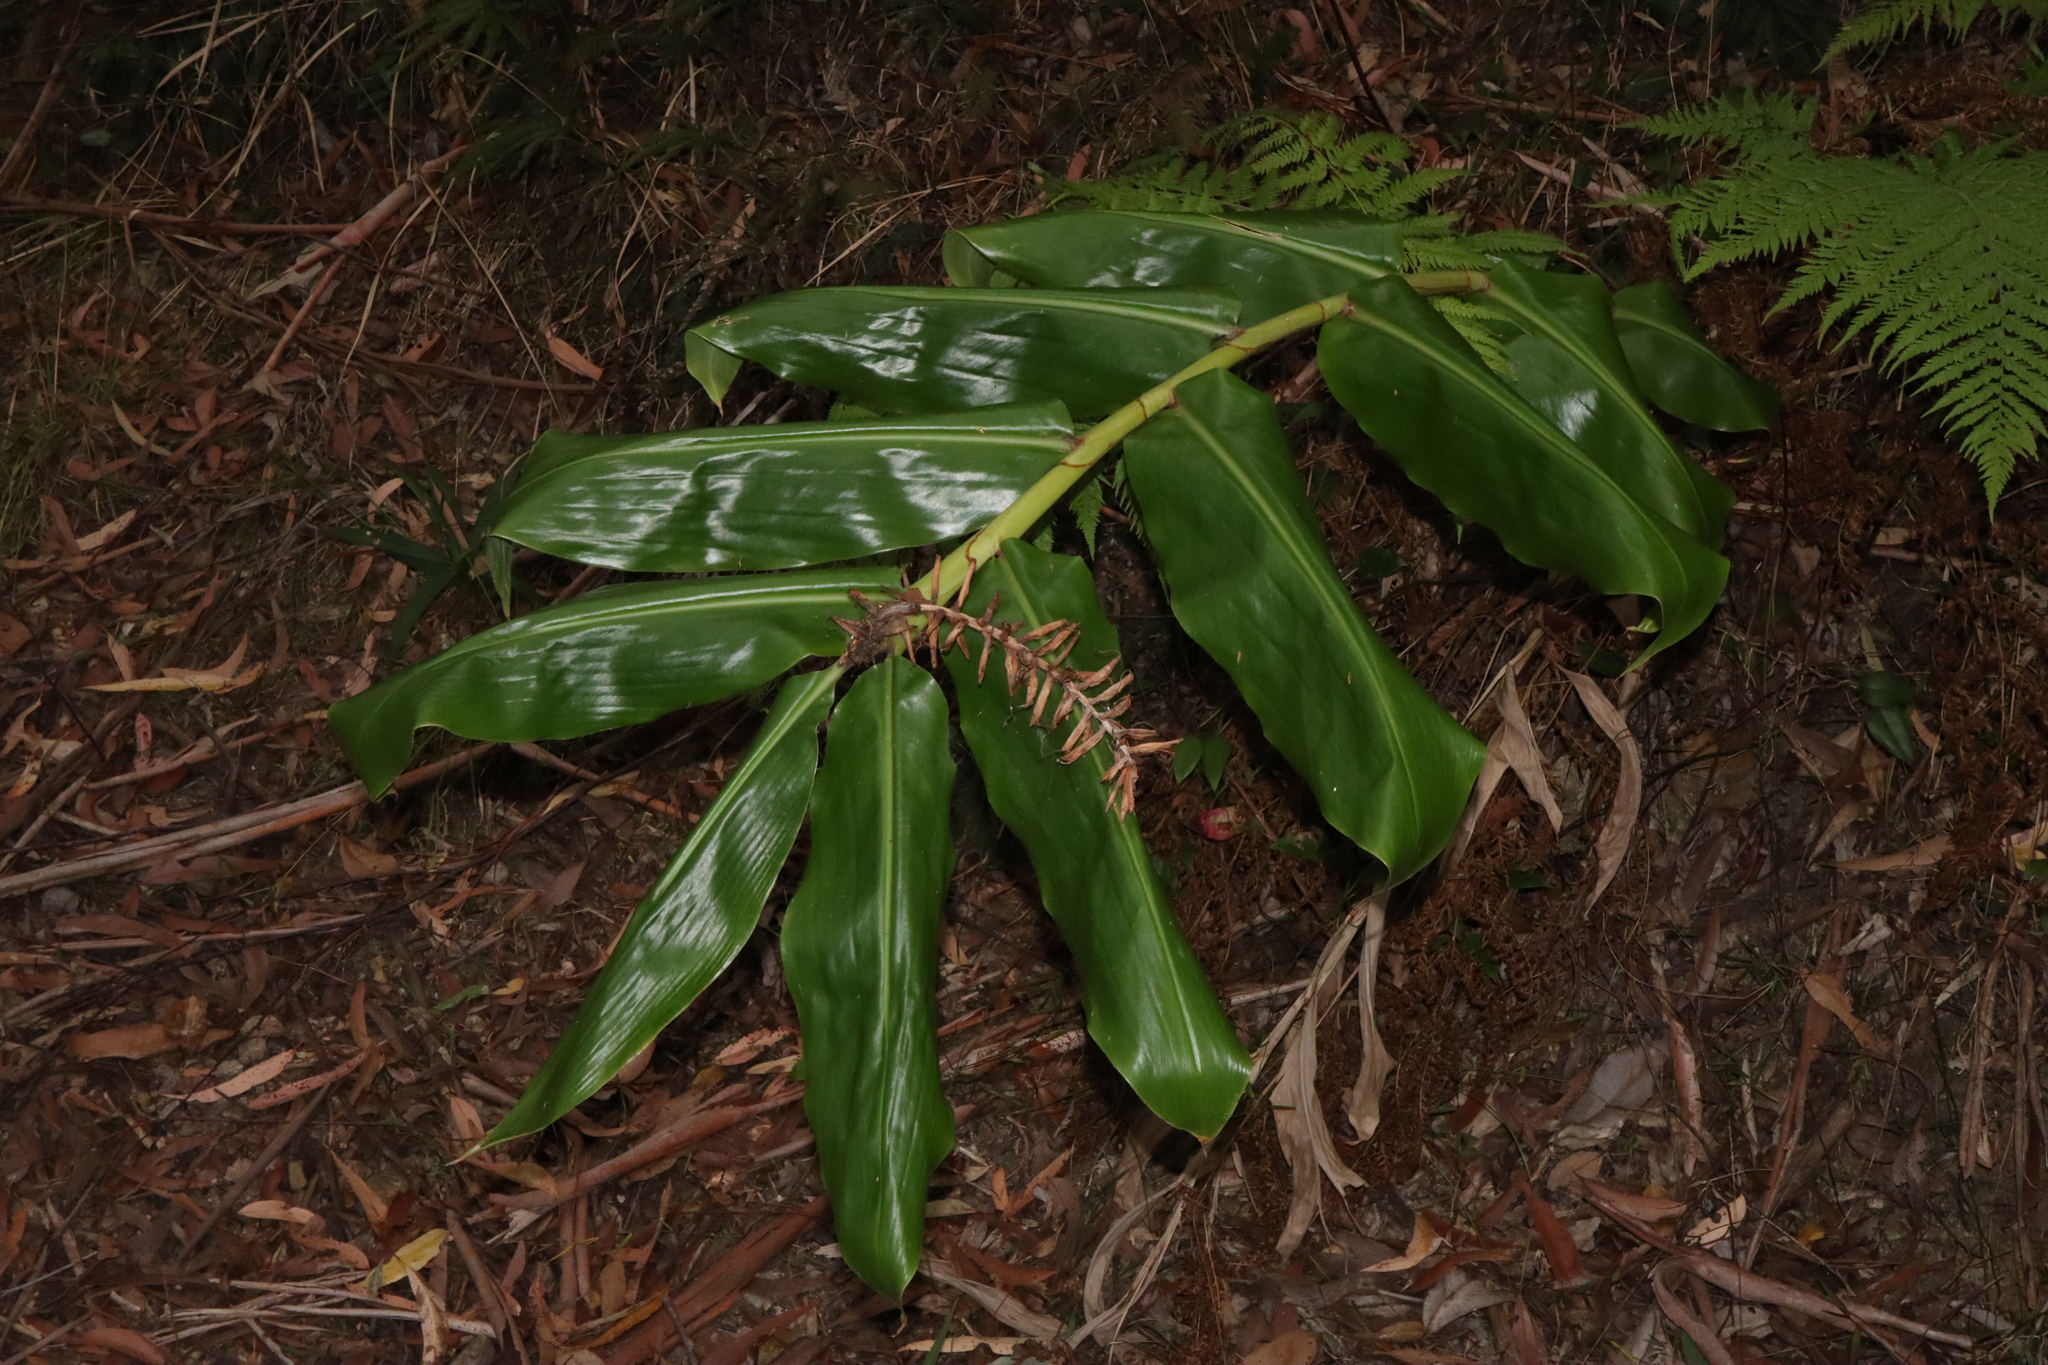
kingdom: Plantae
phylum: Tracheophyta
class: Liliopsida
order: Zingiberales
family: Zingiberaceae
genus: Hedychium
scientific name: Hedychium gardnerianum
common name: Himalayan ginger
